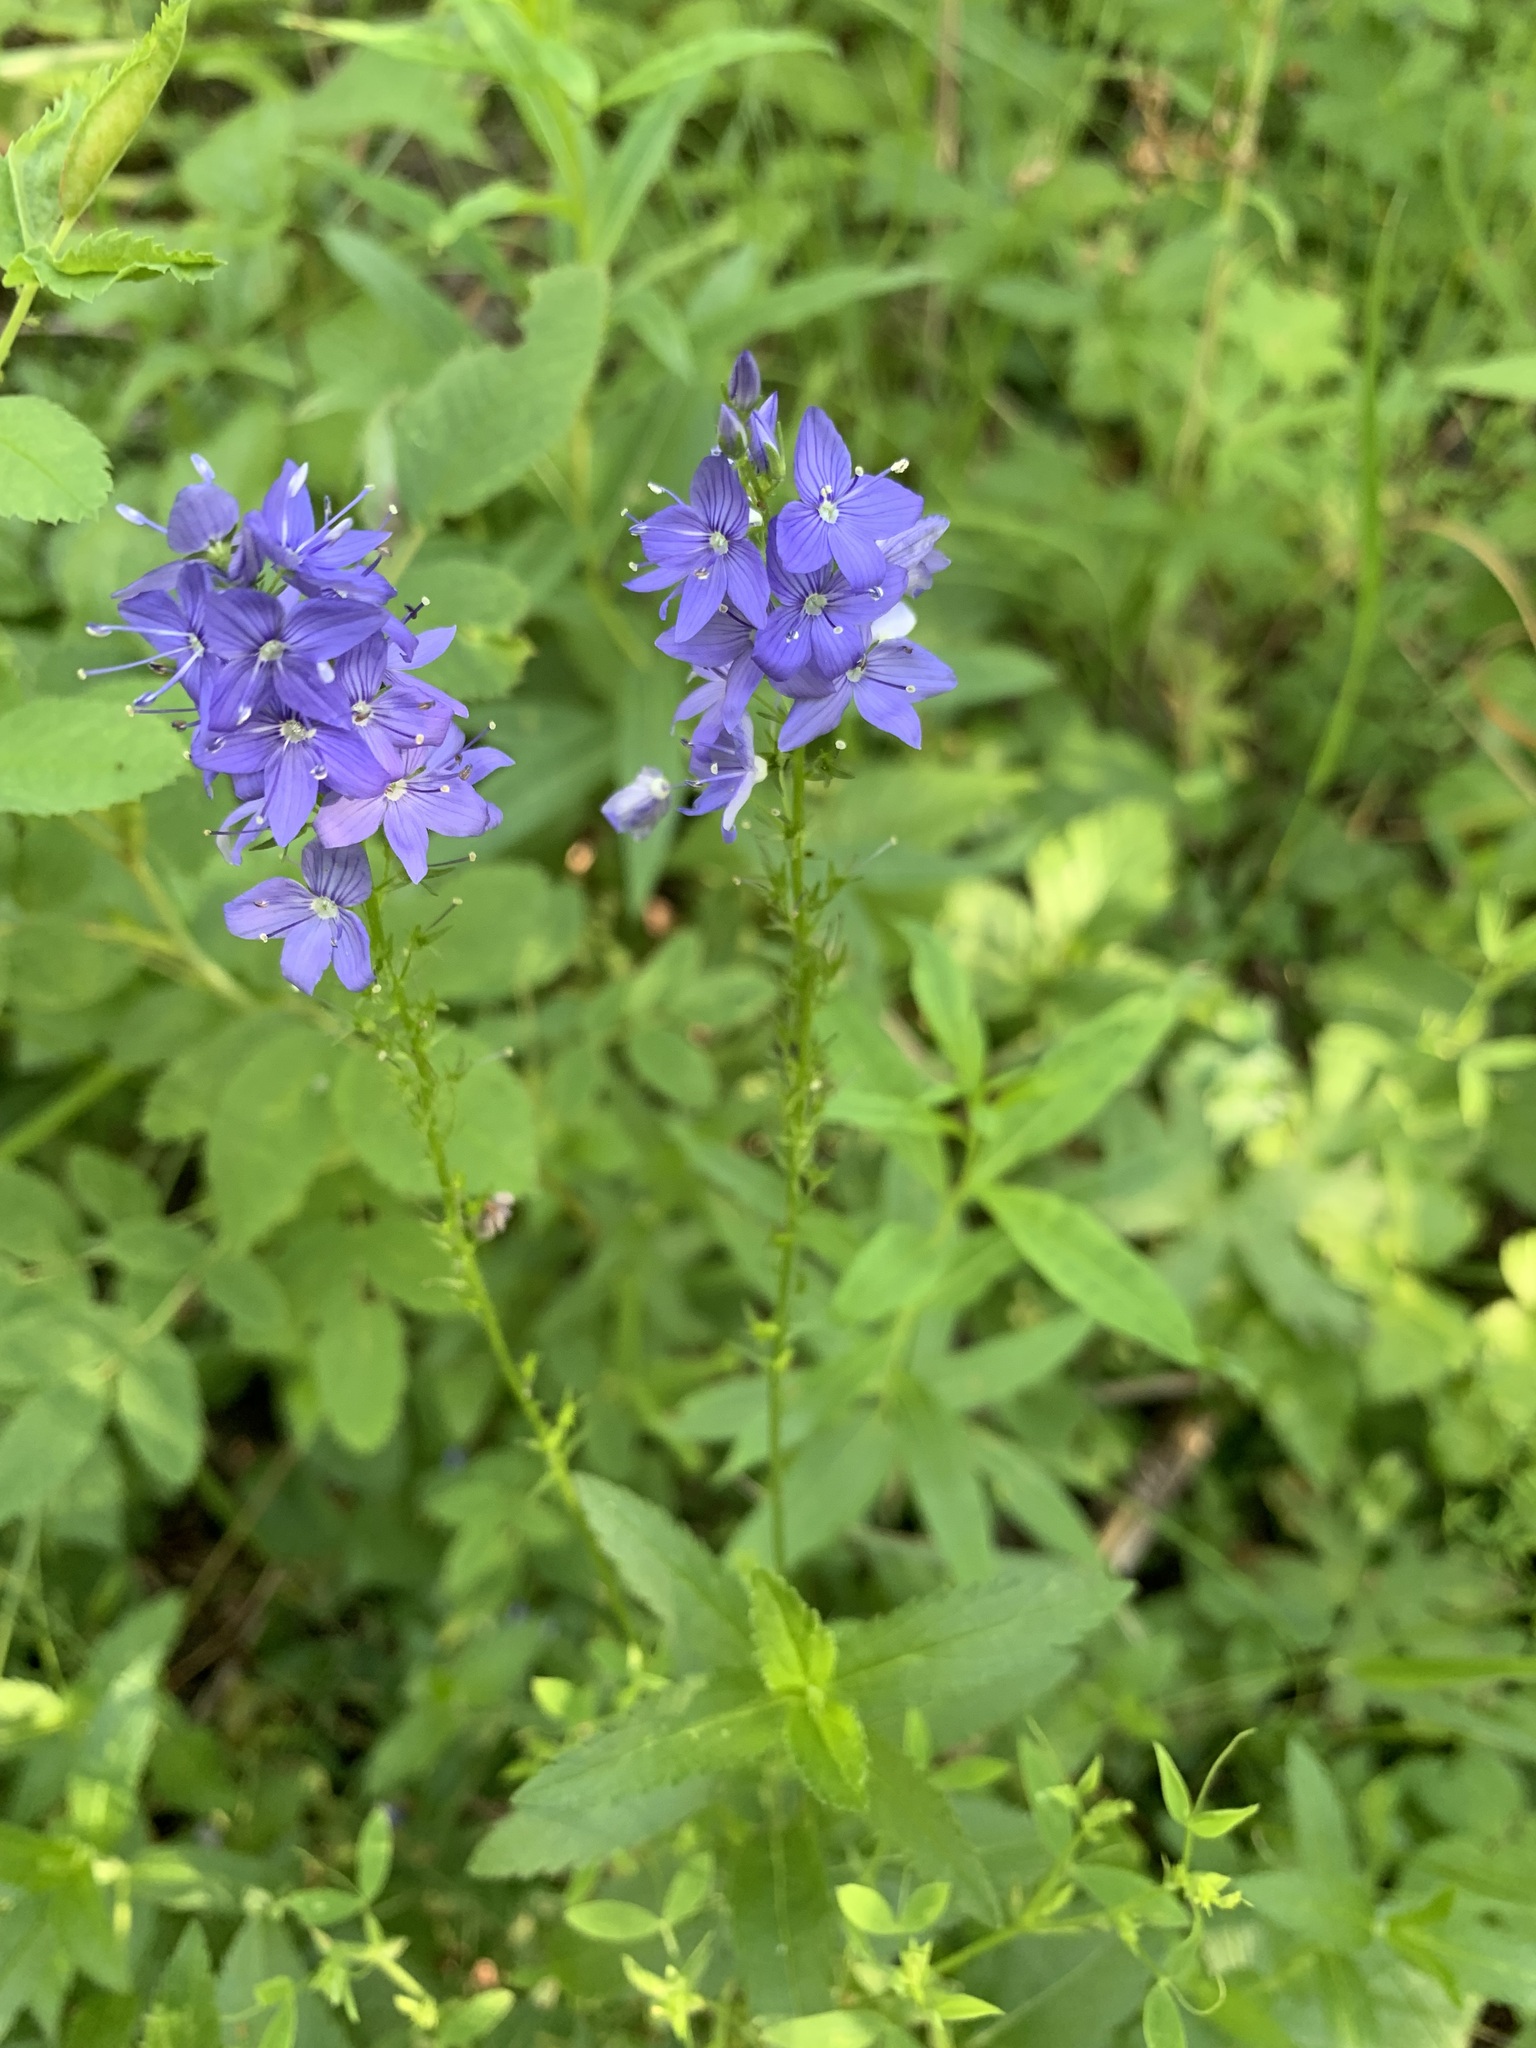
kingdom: Plantae
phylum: Tracheophyta
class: Magnoliopsida
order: Lamiales
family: Plantaginaceae
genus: Veronica
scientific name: Veronica teucrium
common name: Large speedwell
